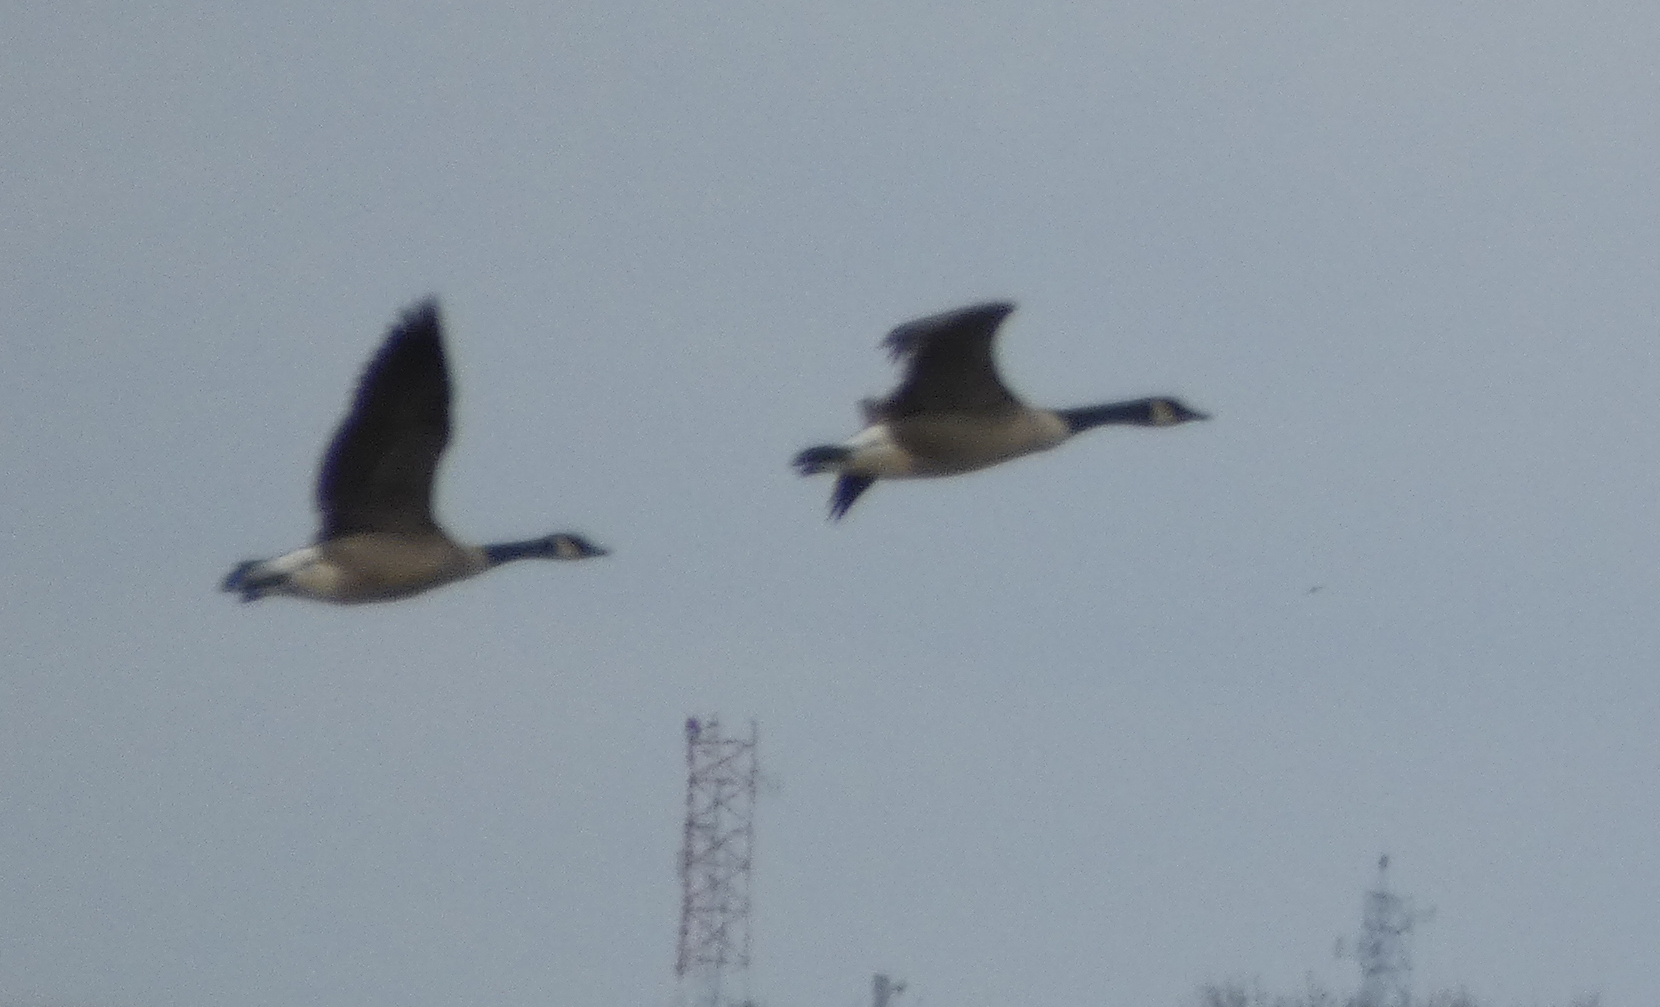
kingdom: Animalia
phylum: Chordata
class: Aves
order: Anseriformes
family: Anatidae
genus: Branta
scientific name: Branta canadensis
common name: Canada goose
